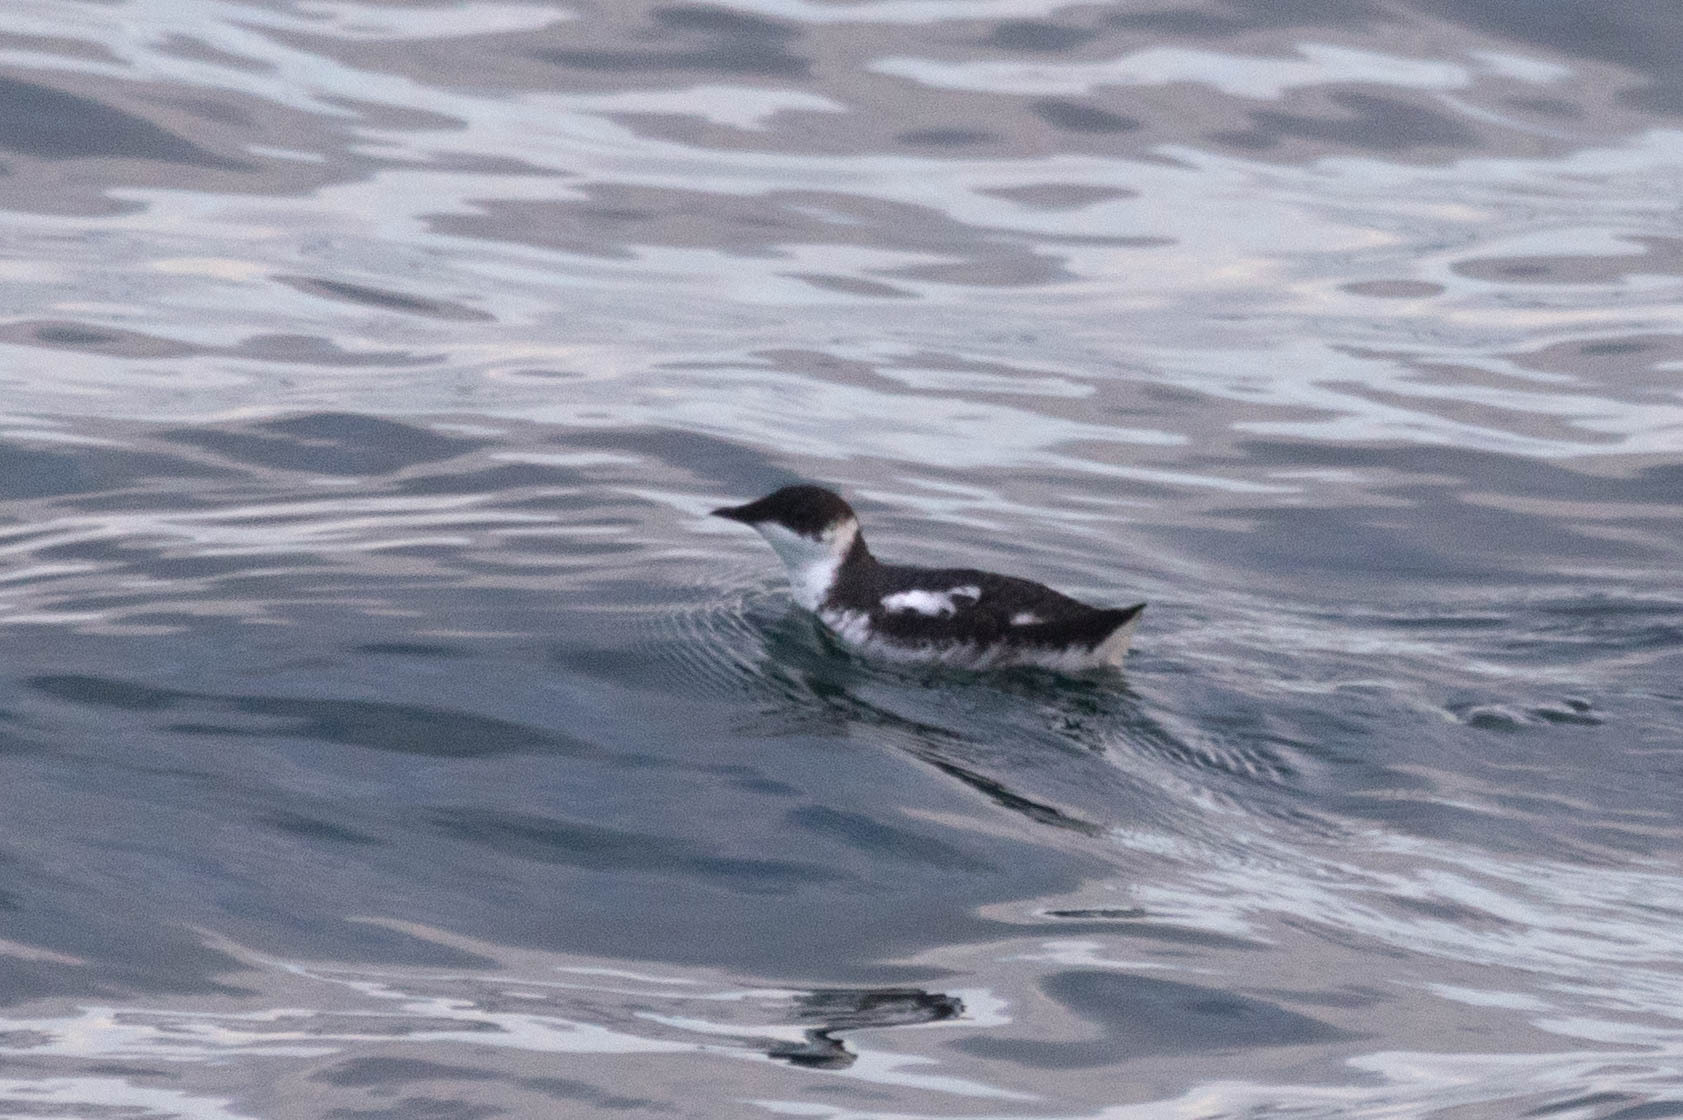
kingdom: Animalia
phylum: Chordata
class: Aves
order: Charadriiformes
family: Alcidae
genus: Brachyramphus
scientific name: Brachyramphus marmoratus
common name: Marbled murrelet
